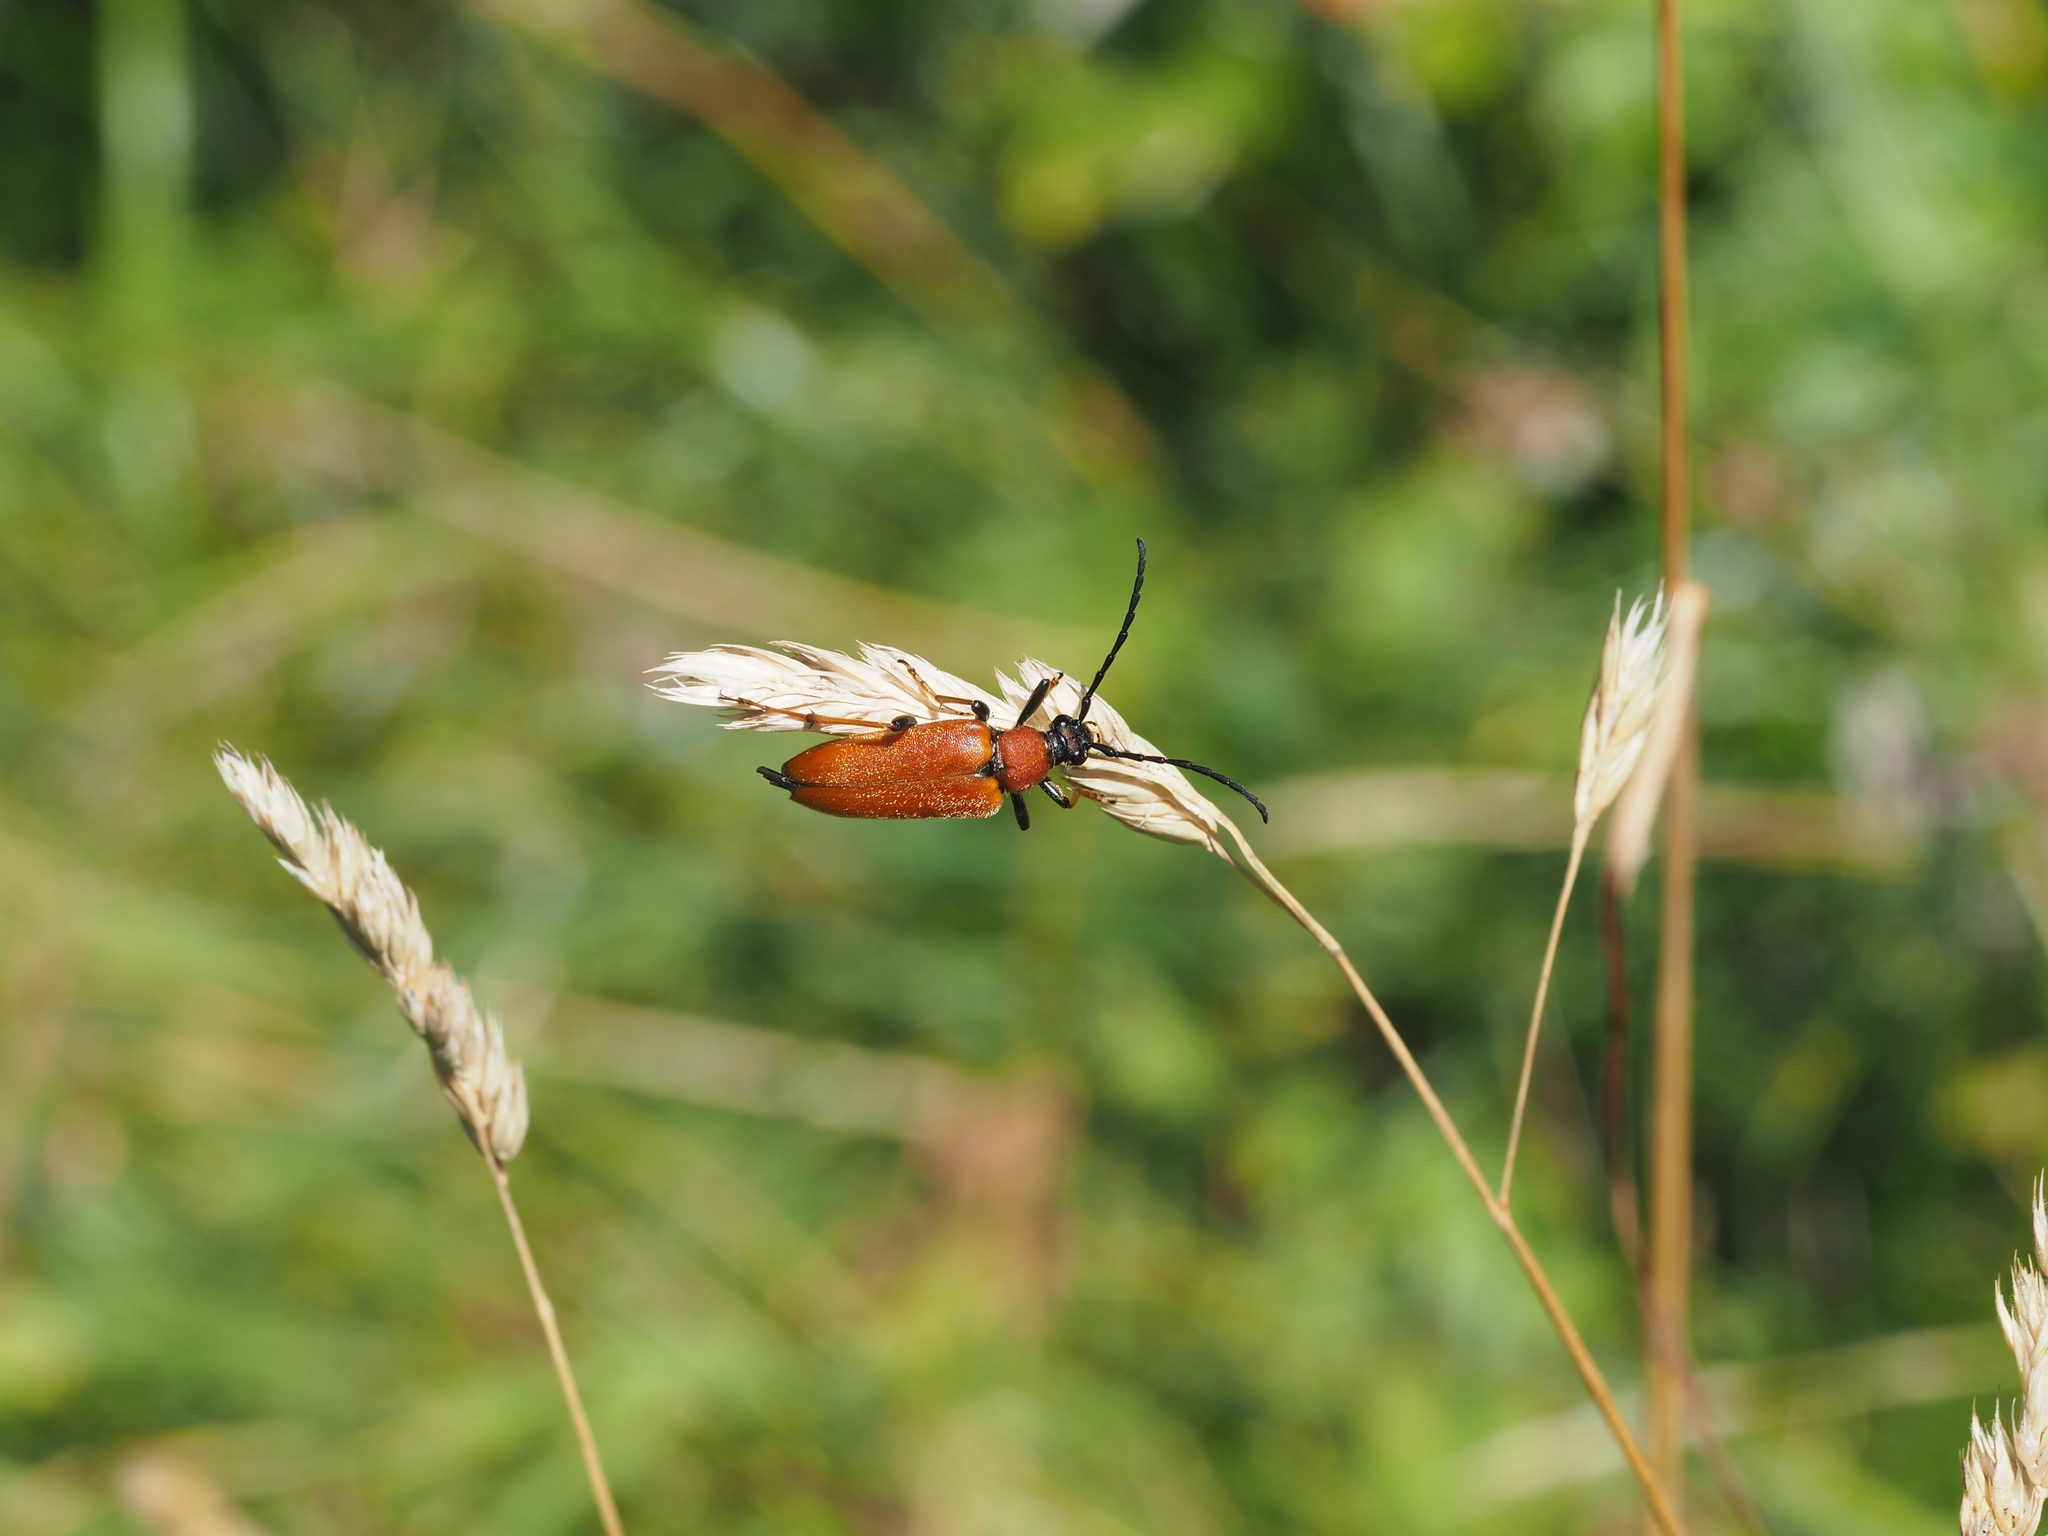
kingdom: Animalia
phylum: Arthropoda
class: Insecta
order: Coleoptera
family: Cerambycidae
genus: Stictoleptura
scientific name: Stictoleptura rubra
